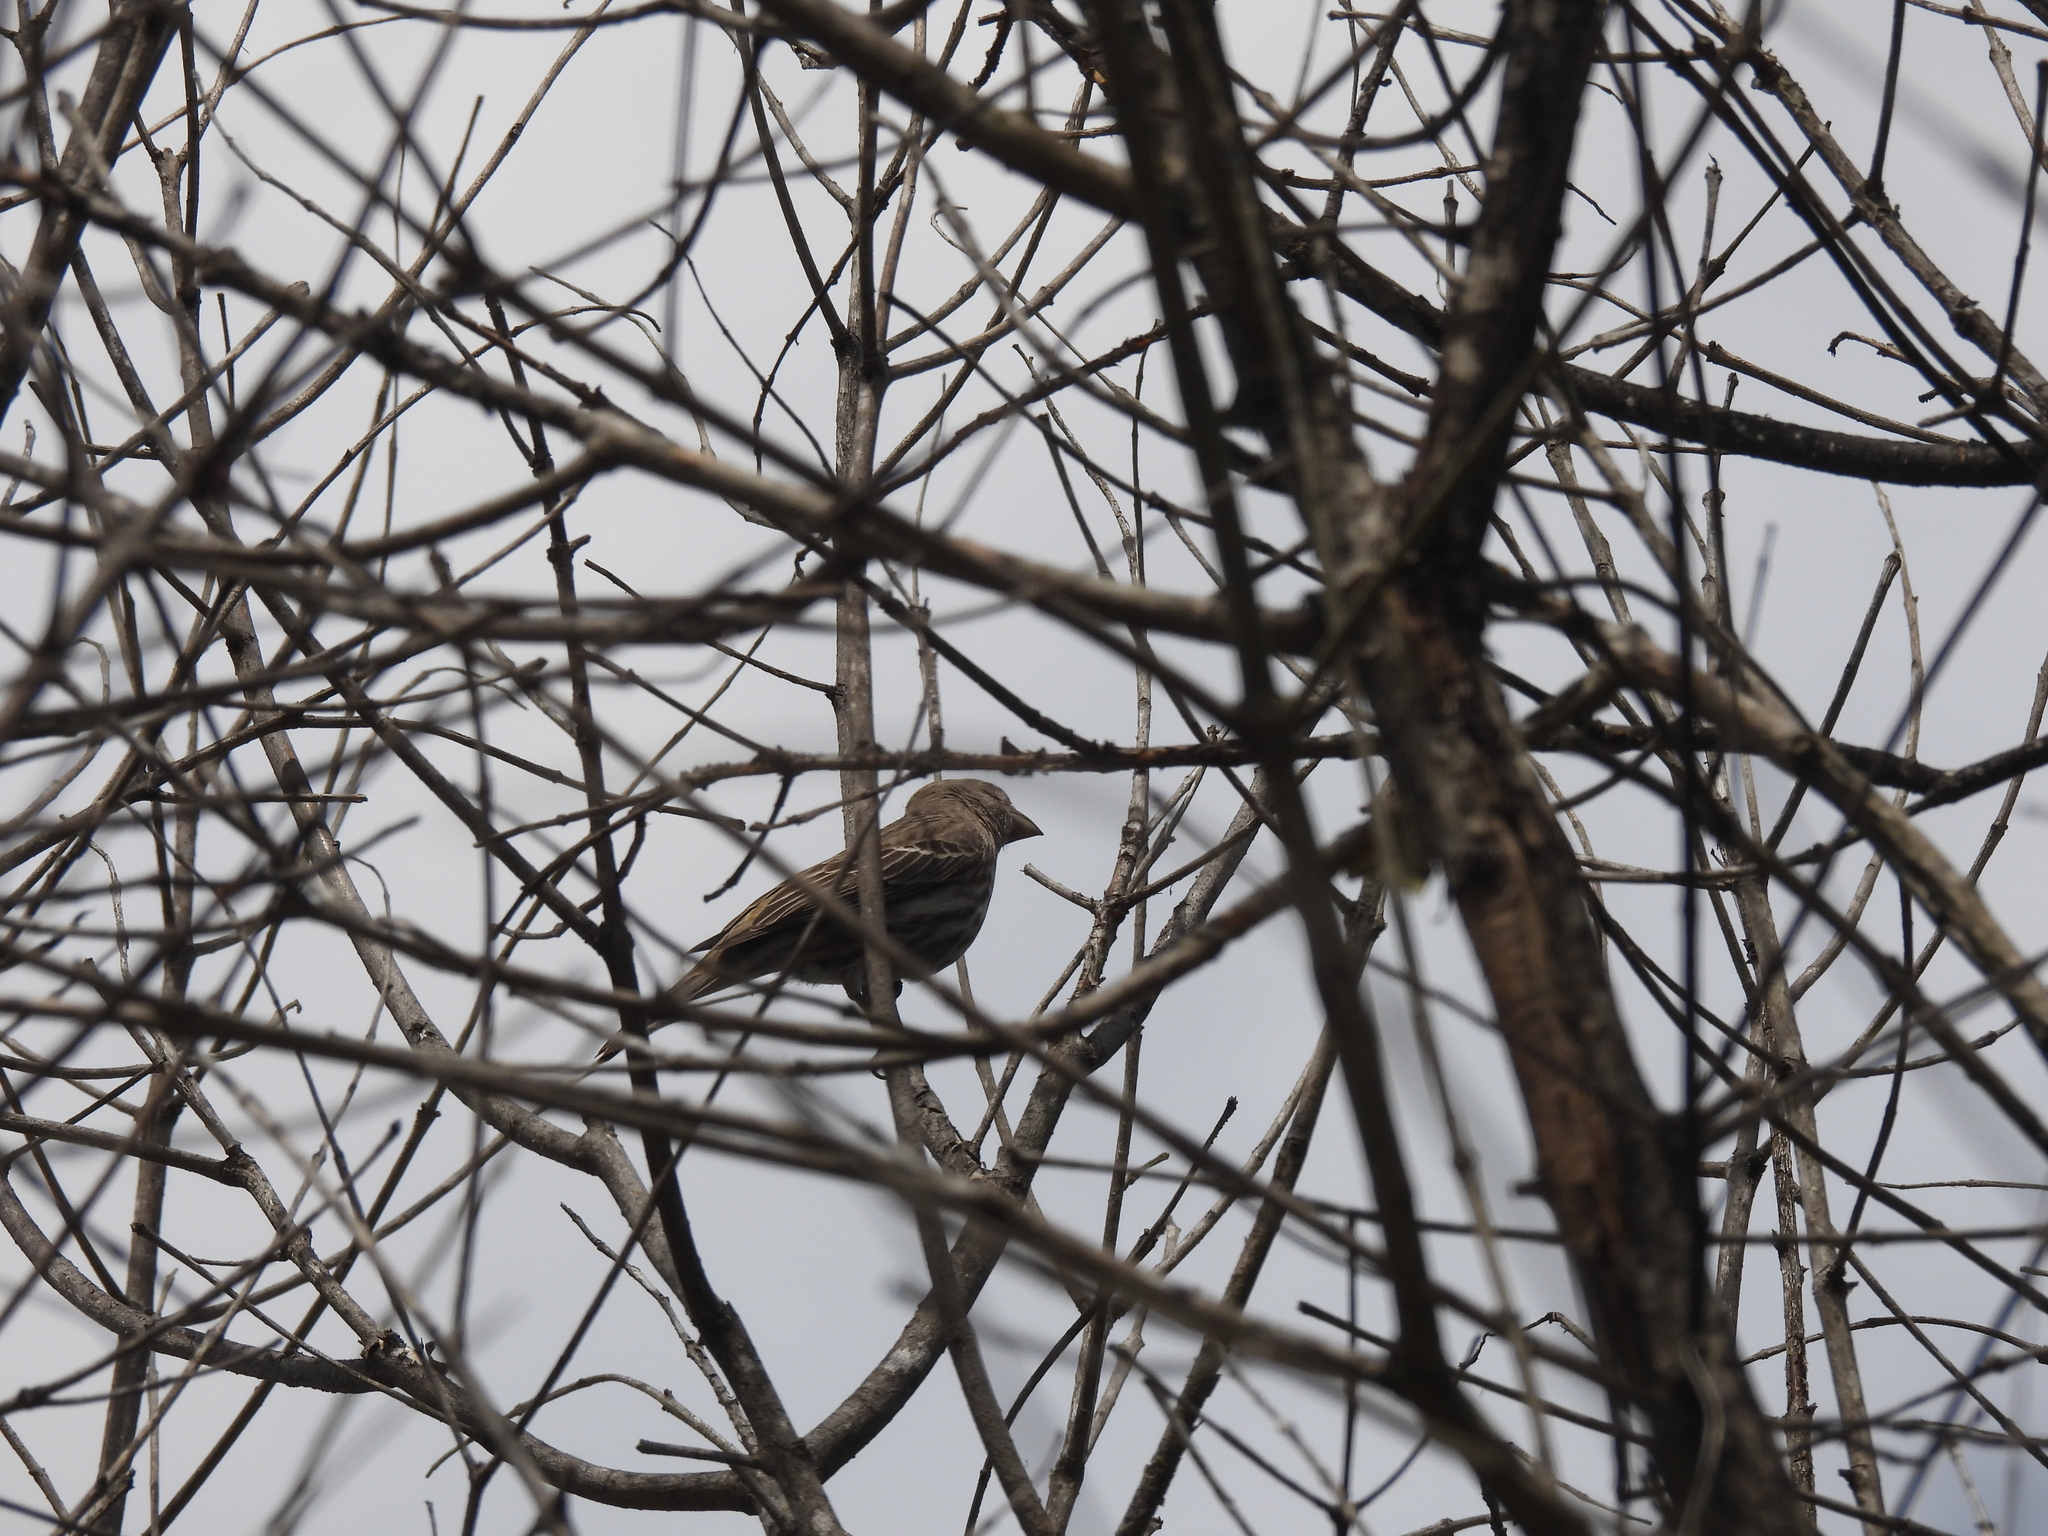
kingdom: Animalia
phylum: Chordata
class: Aves
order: Passeriformes
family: Fringillidae
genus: Haemorhous
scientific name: Haemorhous mexicanus
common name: House finch
